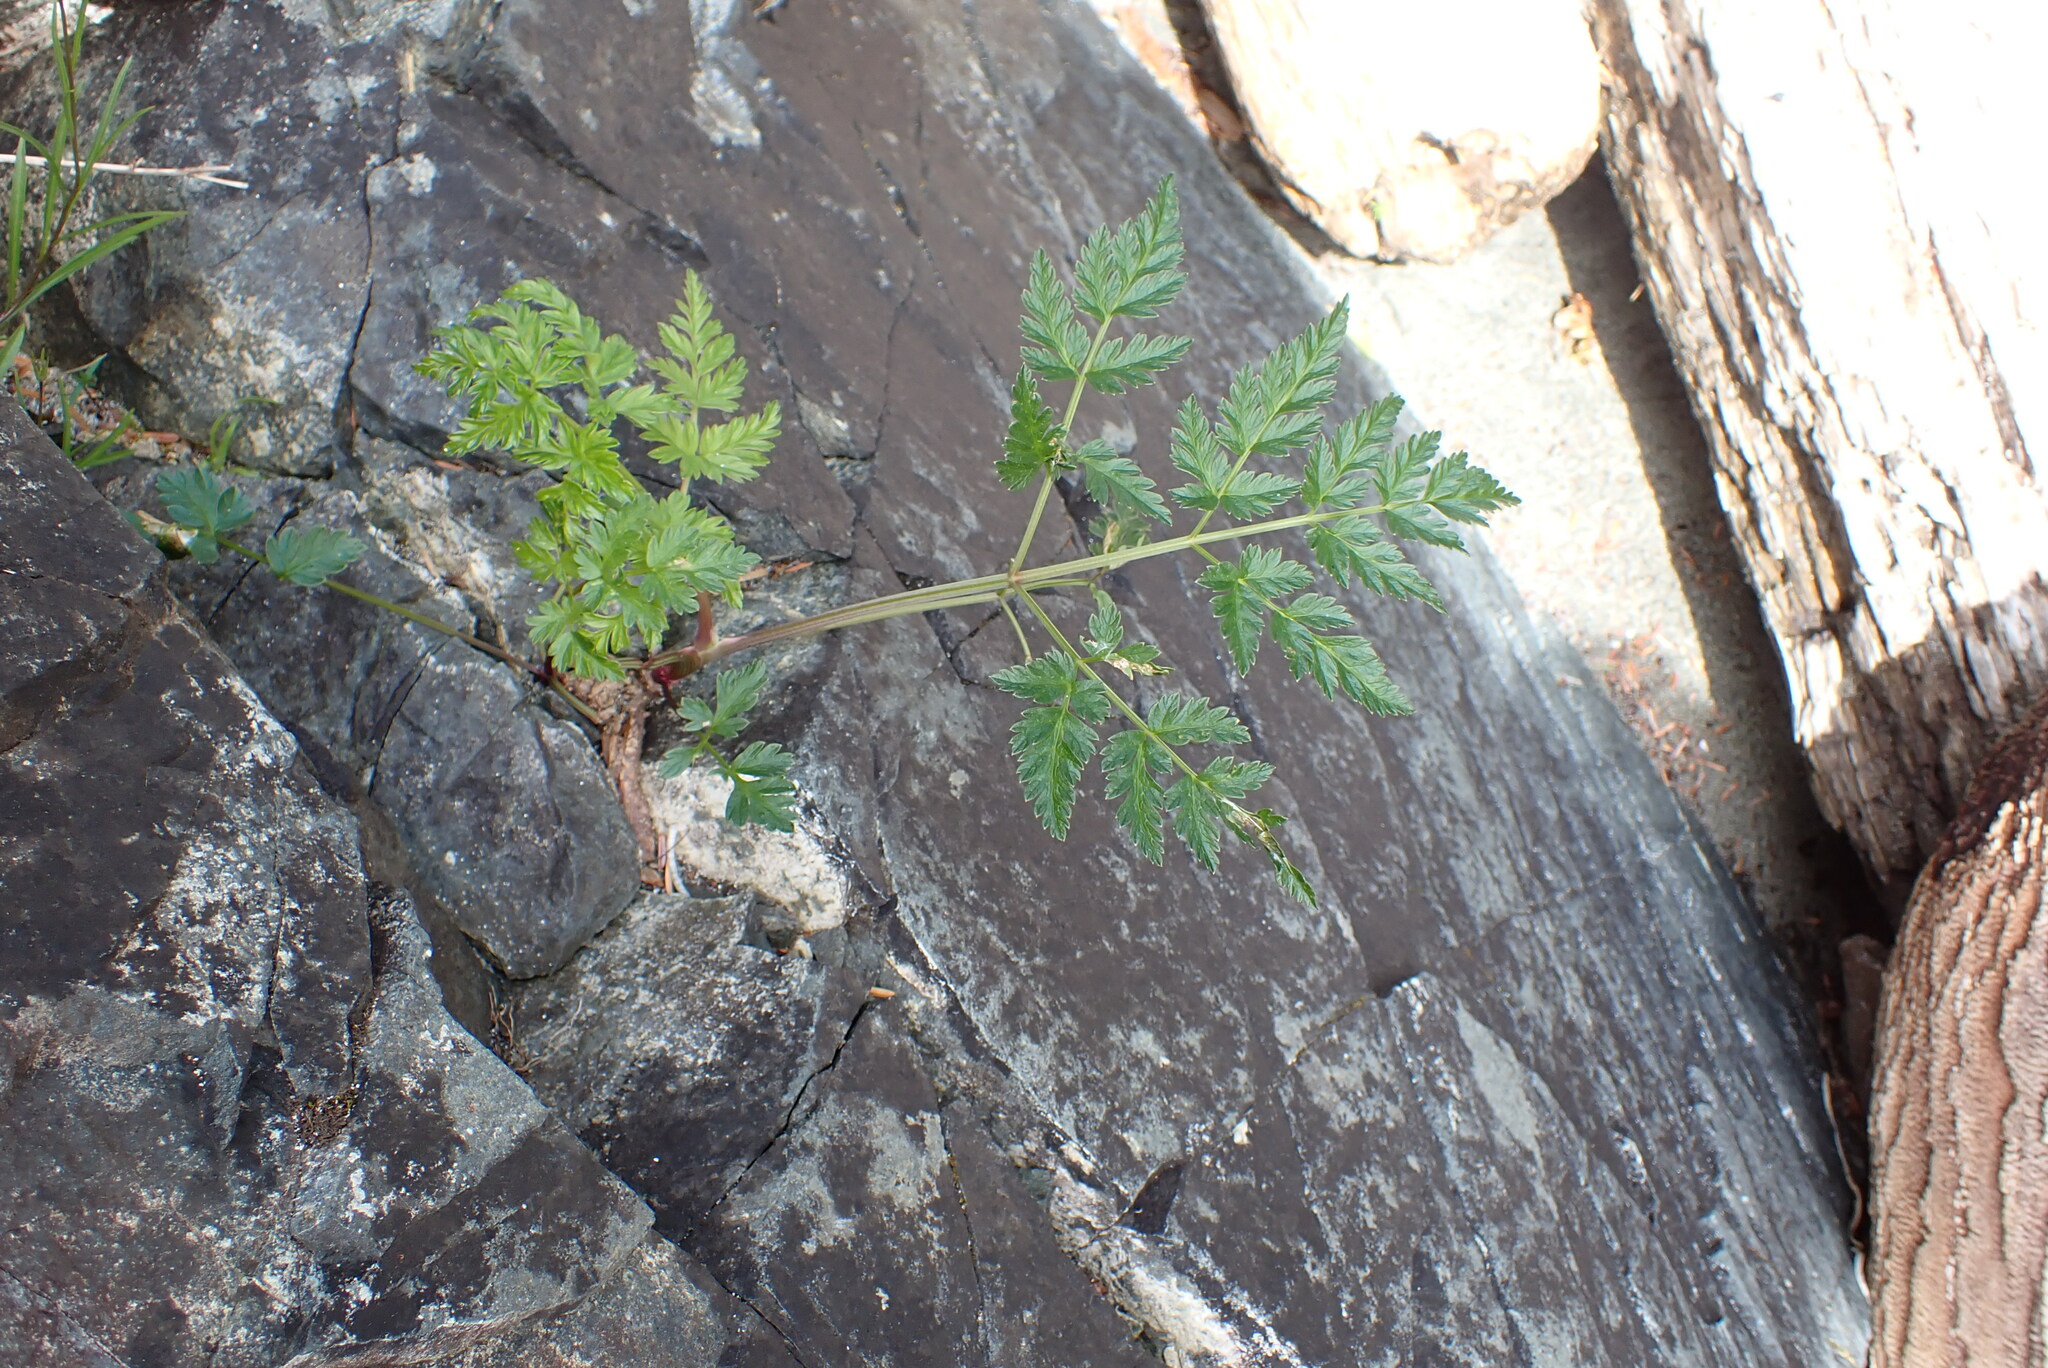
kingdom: Plantae
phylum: Tracheophyta
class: Magnoliopsida
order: Apiales
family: Apiaceae
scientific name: Apiaceae
